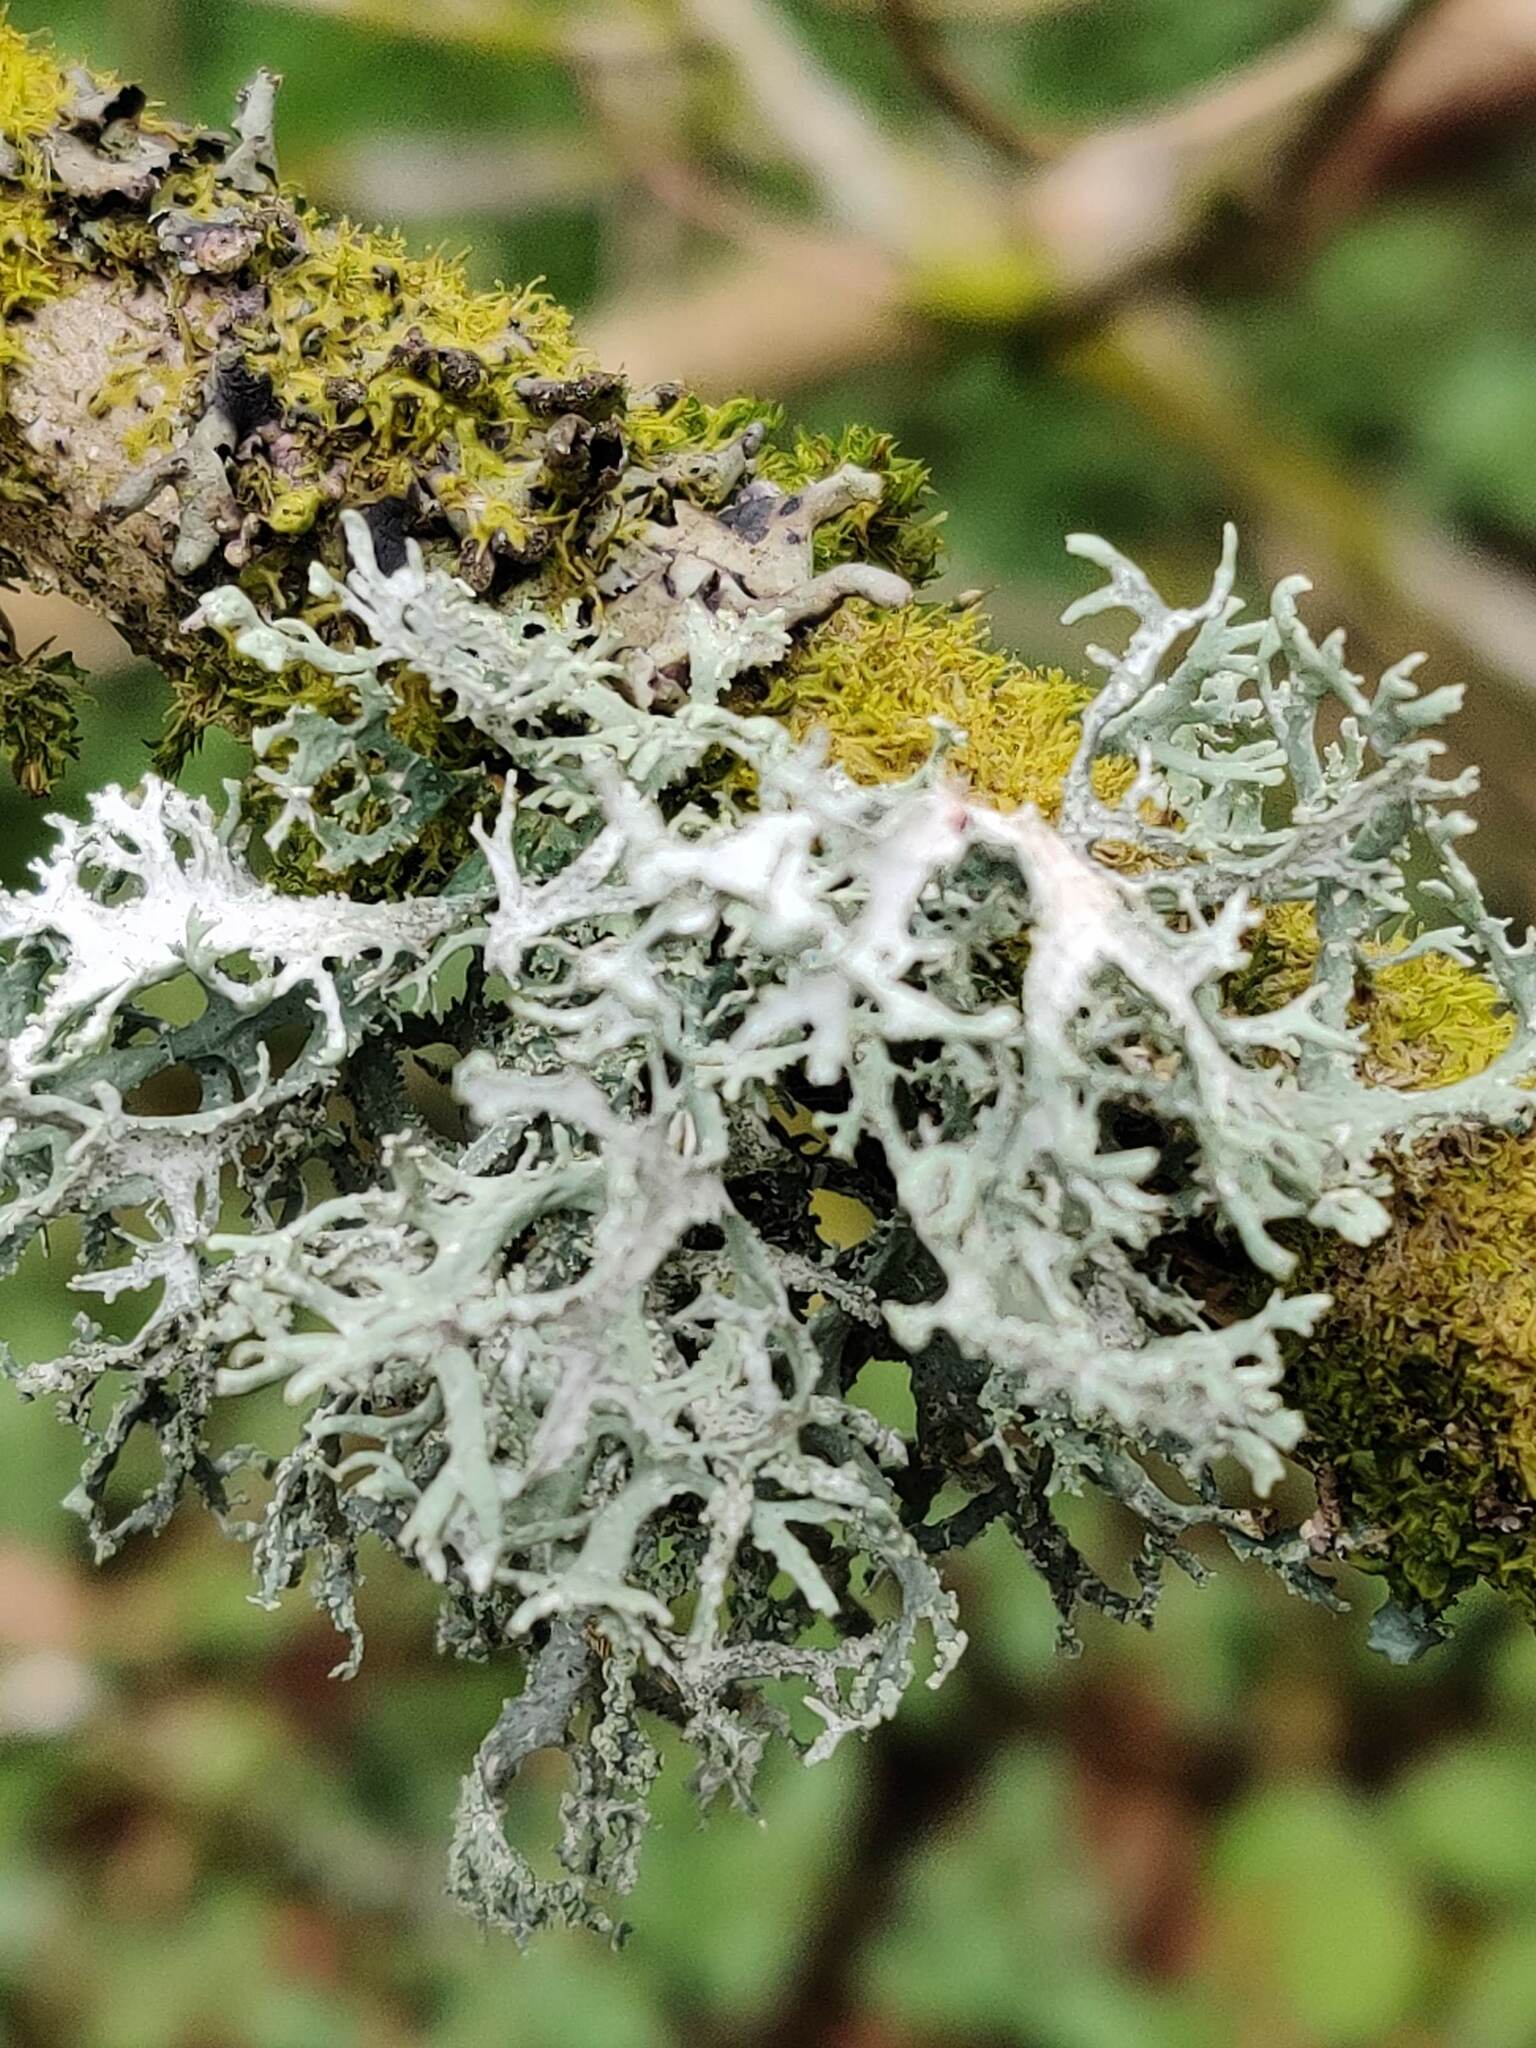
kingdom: Fungi
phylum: Ascomycota
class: Lecanoromycetes
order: Lecanorales
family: Parmeliaceae
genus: Evernia
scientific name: Evernia prunastri
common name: Oak moss
